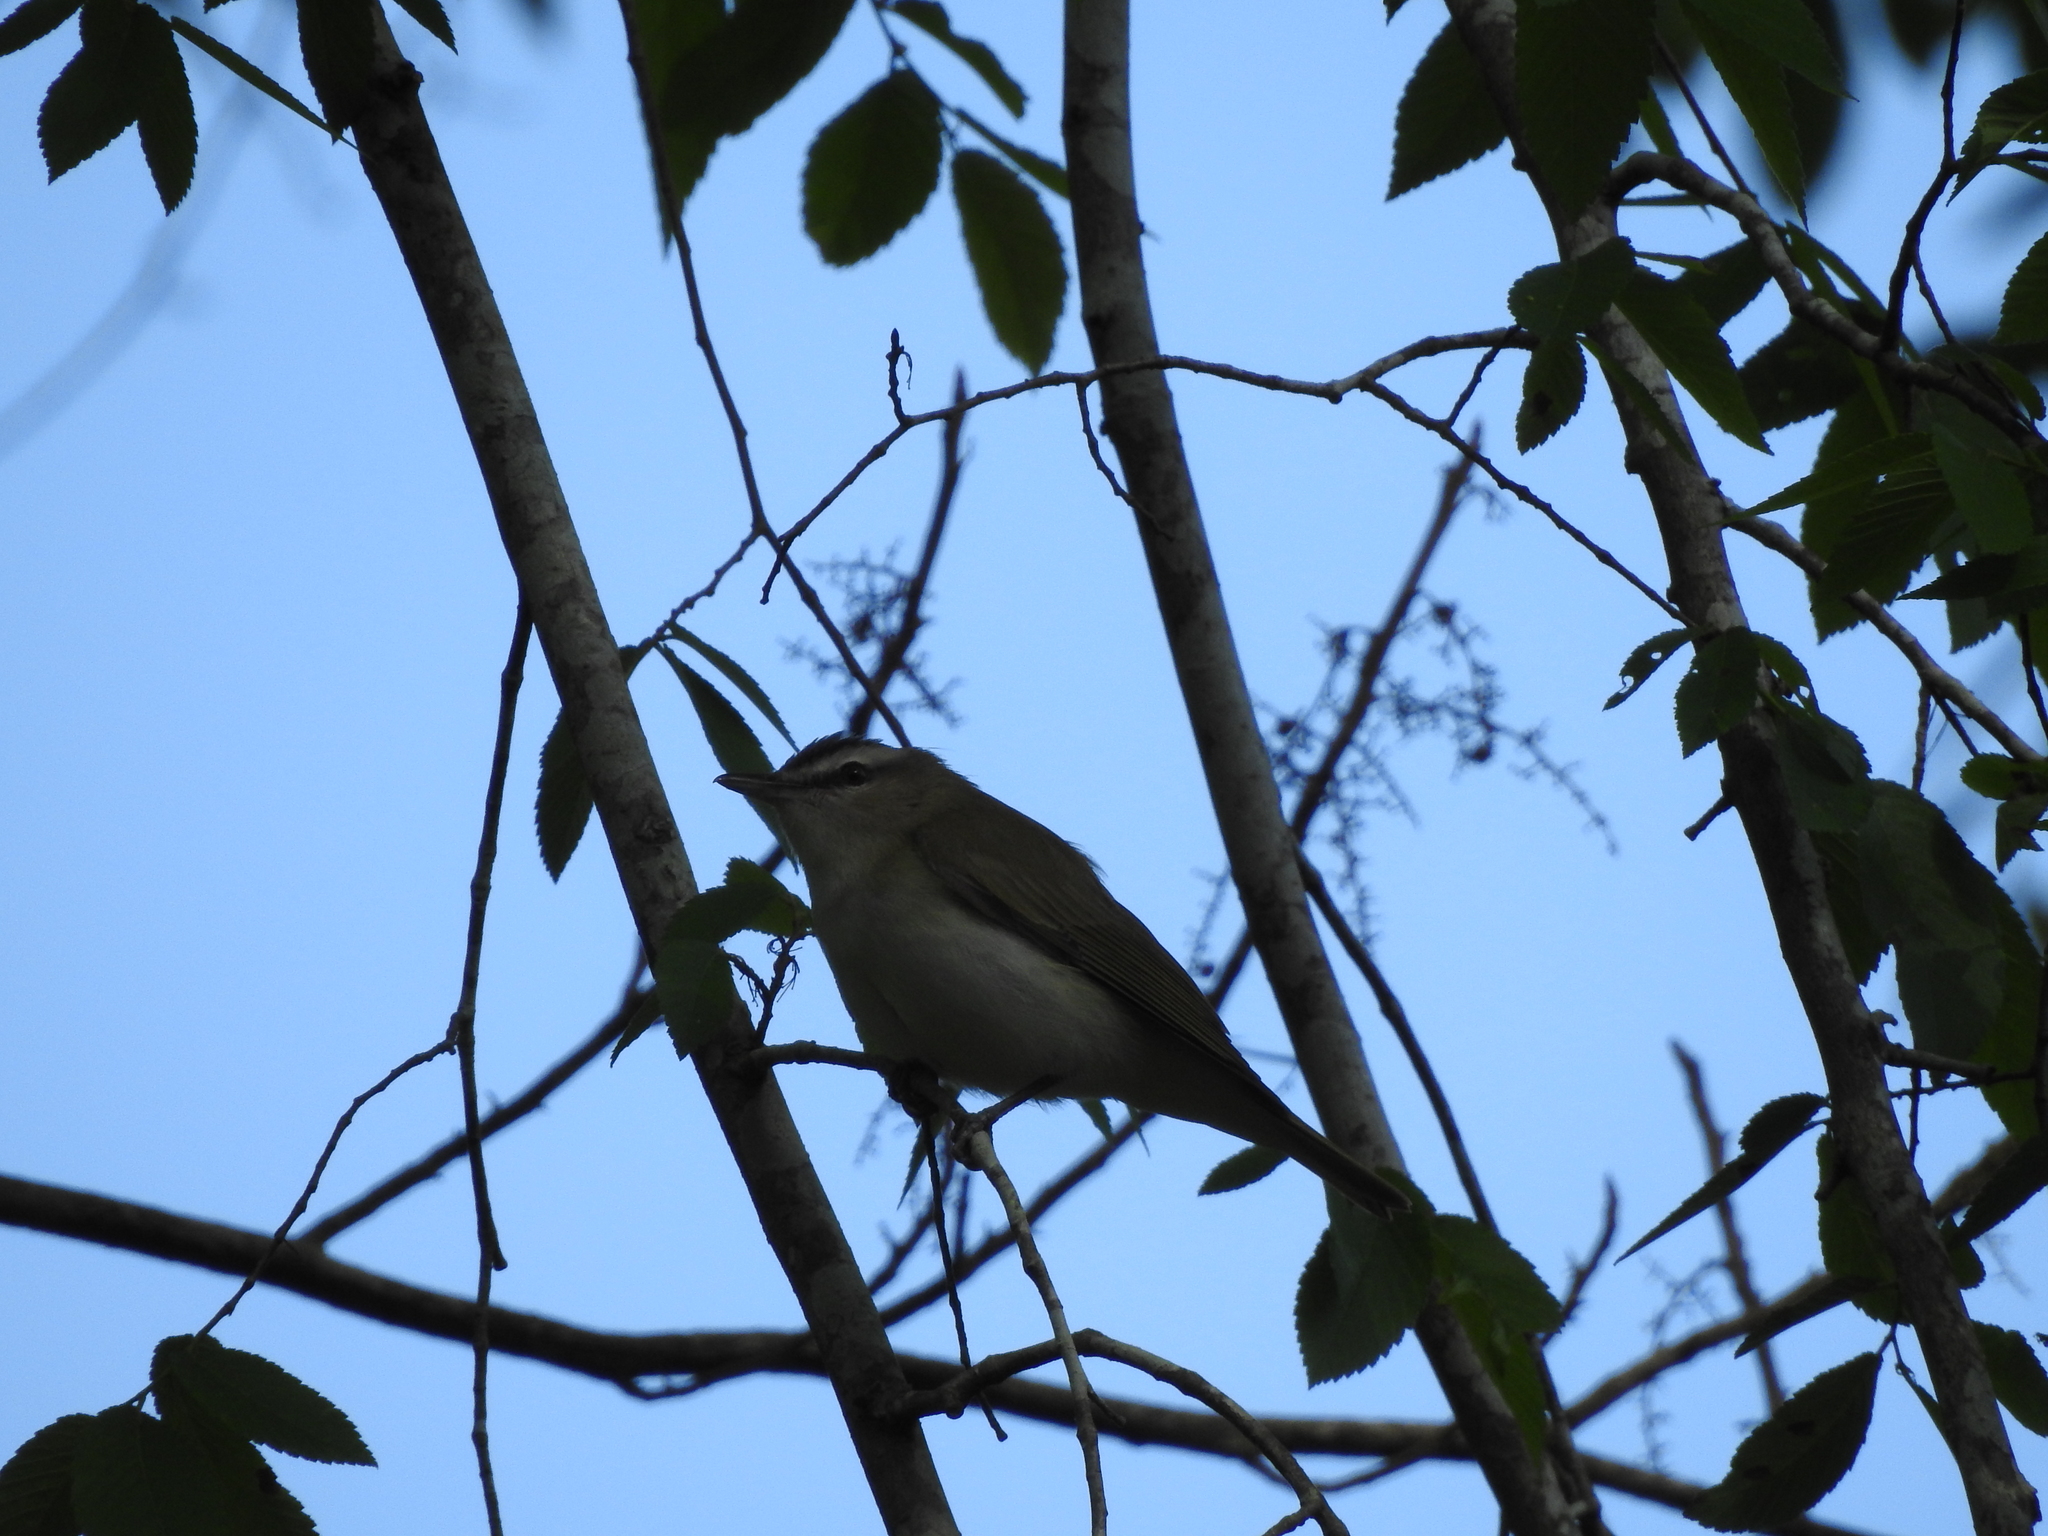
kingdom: Animalia
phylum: Chordata
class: Aves
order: Passeriformes
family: Vireonidae
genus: Vireo
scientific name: Vireo olivaceus
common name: Red-eyed vireo
